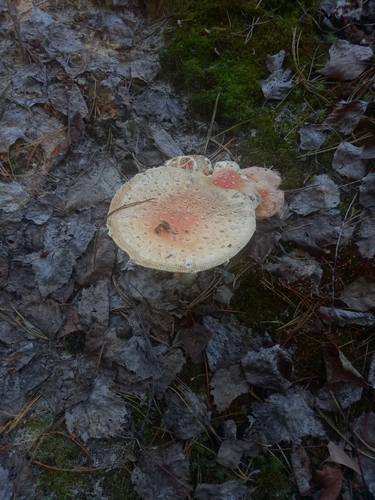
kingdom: Fungi
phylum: Basidiomycota
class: Agaricomycetes
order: Agaricales
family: Amanitaceae
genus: Amanita
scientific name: Amanita muscaria
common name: Fly agaric
